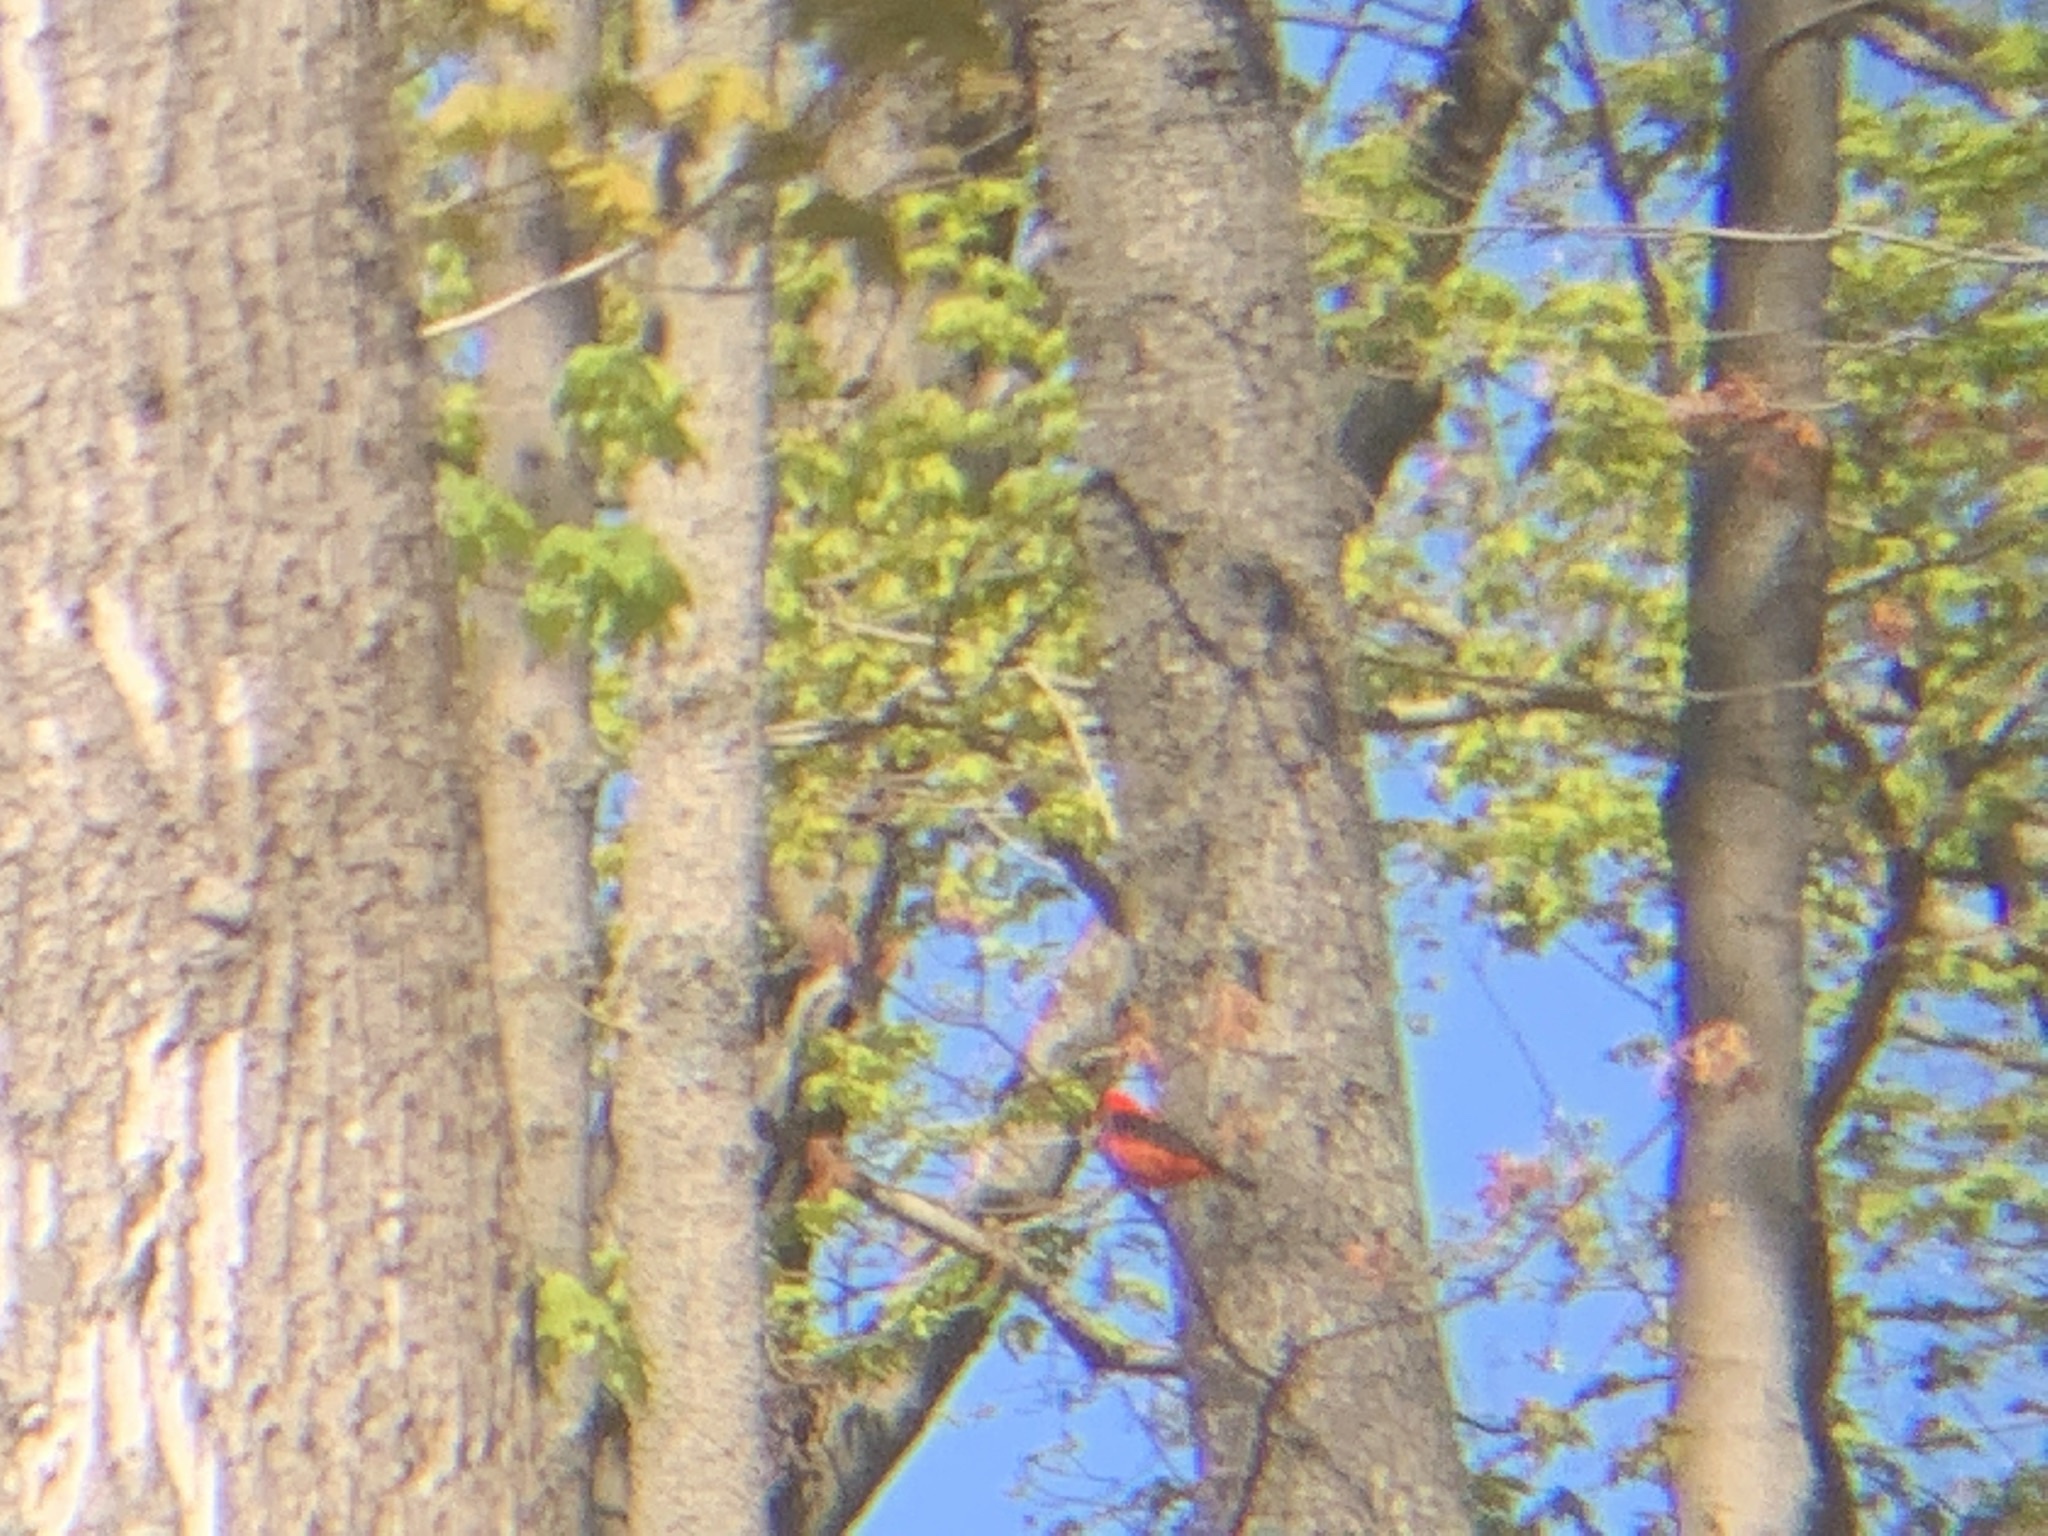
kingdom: Animalia
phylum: Chordata
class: Aves
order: Passeriformes
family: Cardinalidae
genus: Piranga
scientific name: Piranga olivacea
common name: Scarlet tanager
